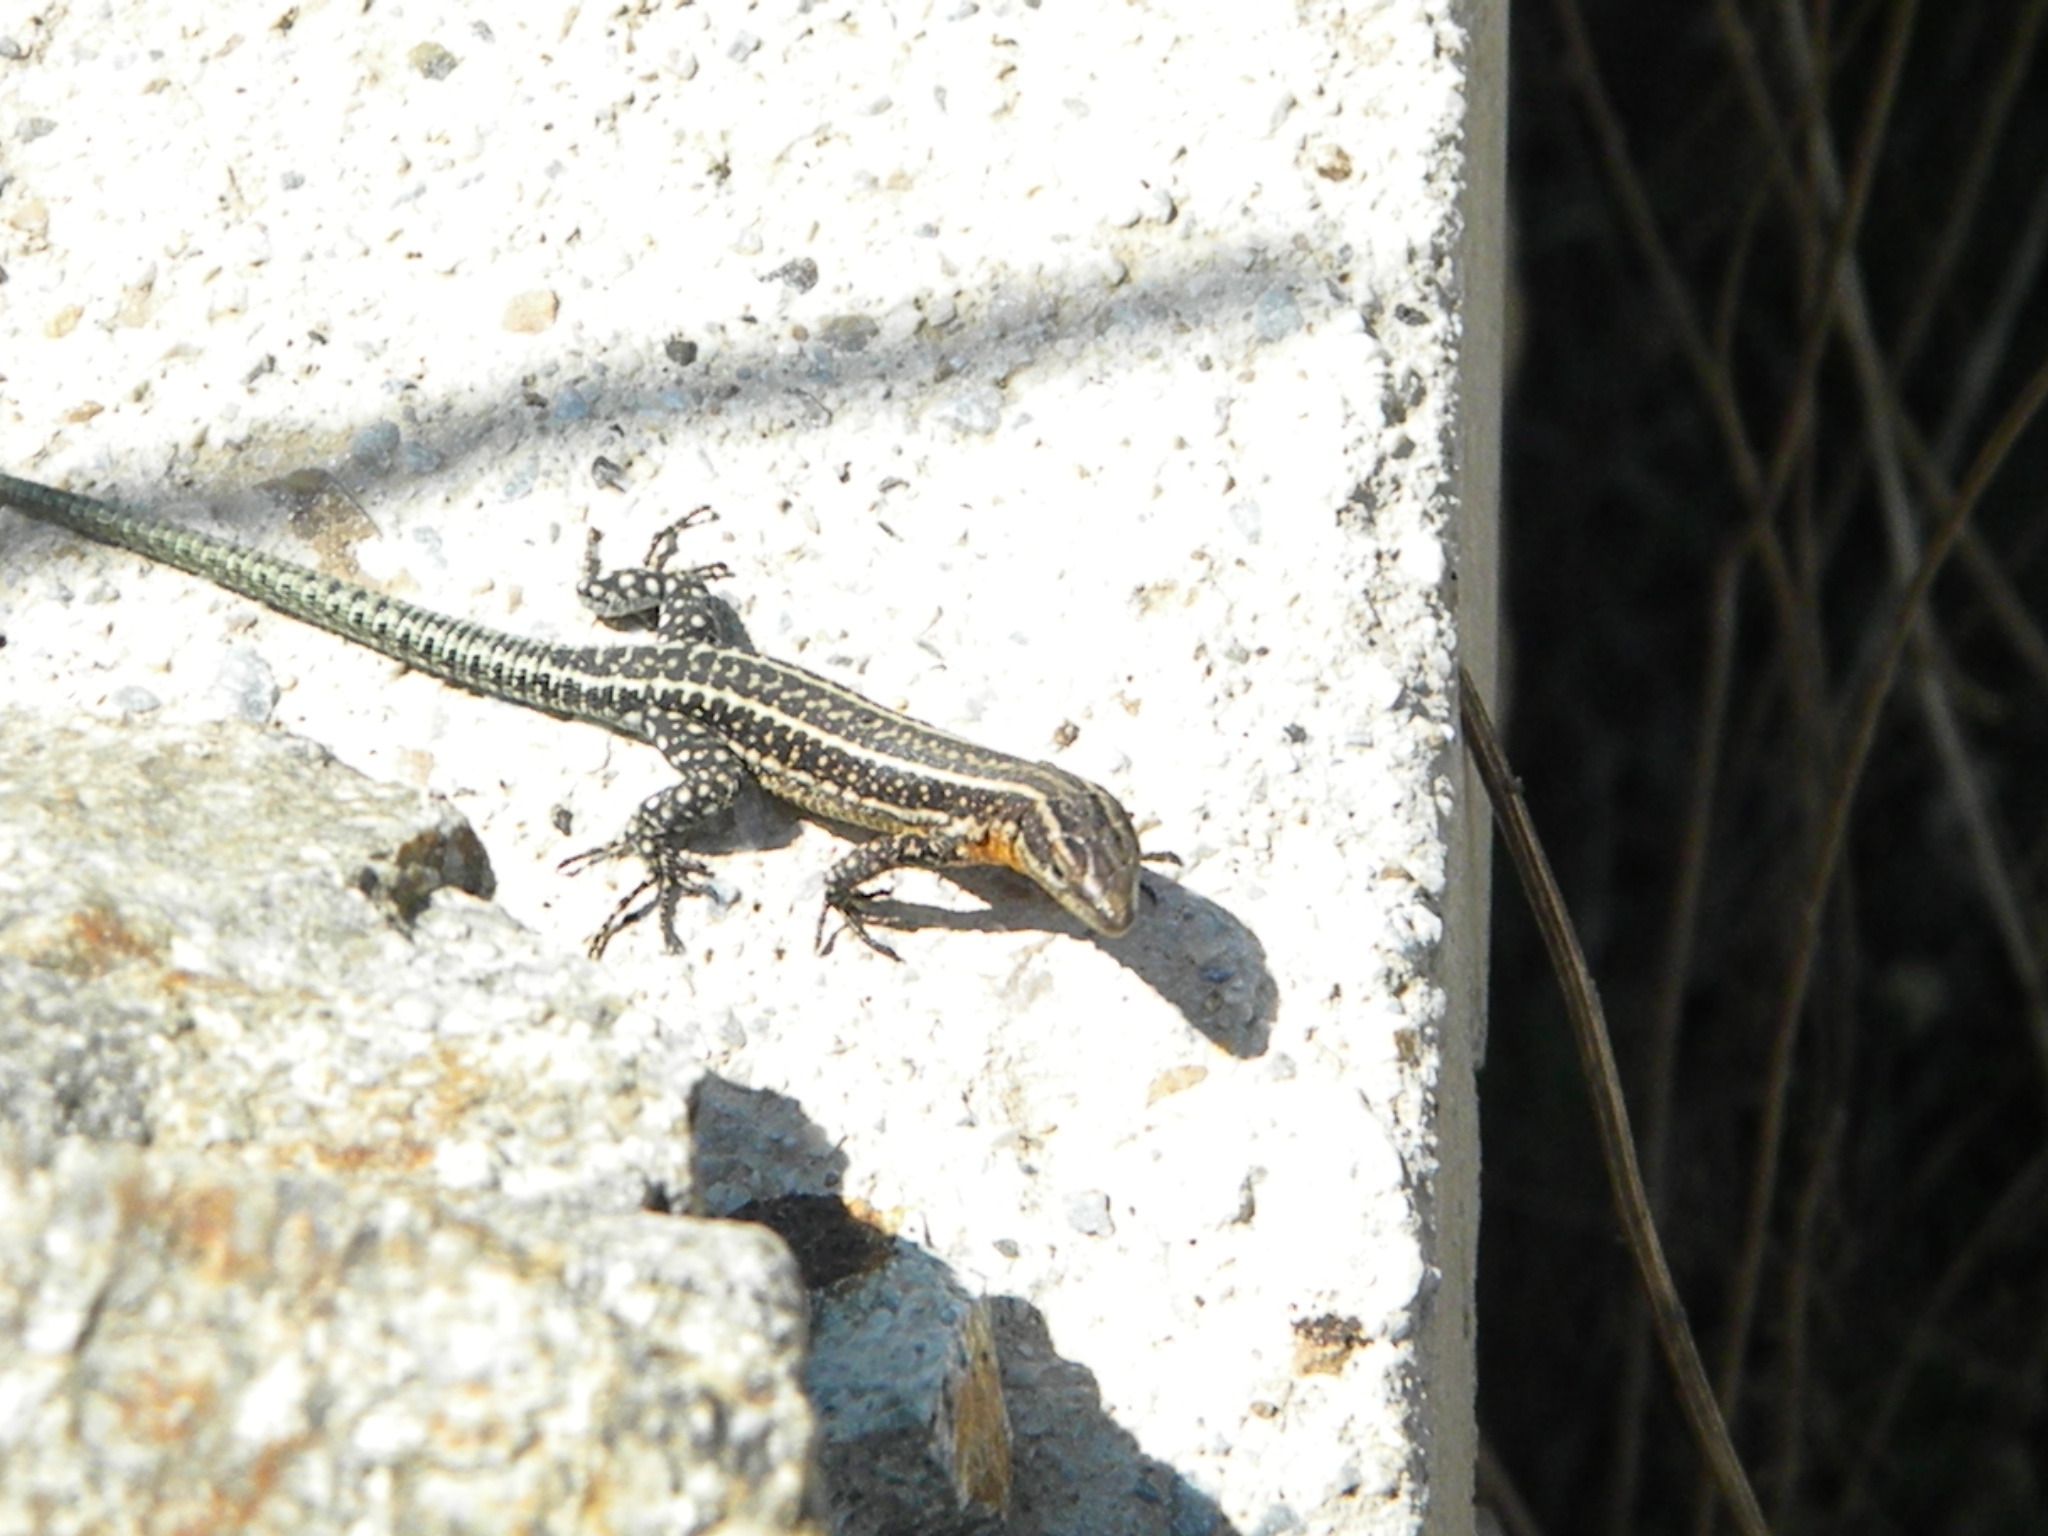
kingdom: Animalia
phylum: Chordata
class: Squamata
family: Lacertidae
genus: Anatololacerta
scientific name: Anatololacerta anatolica
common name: Anatolian rock lizard
